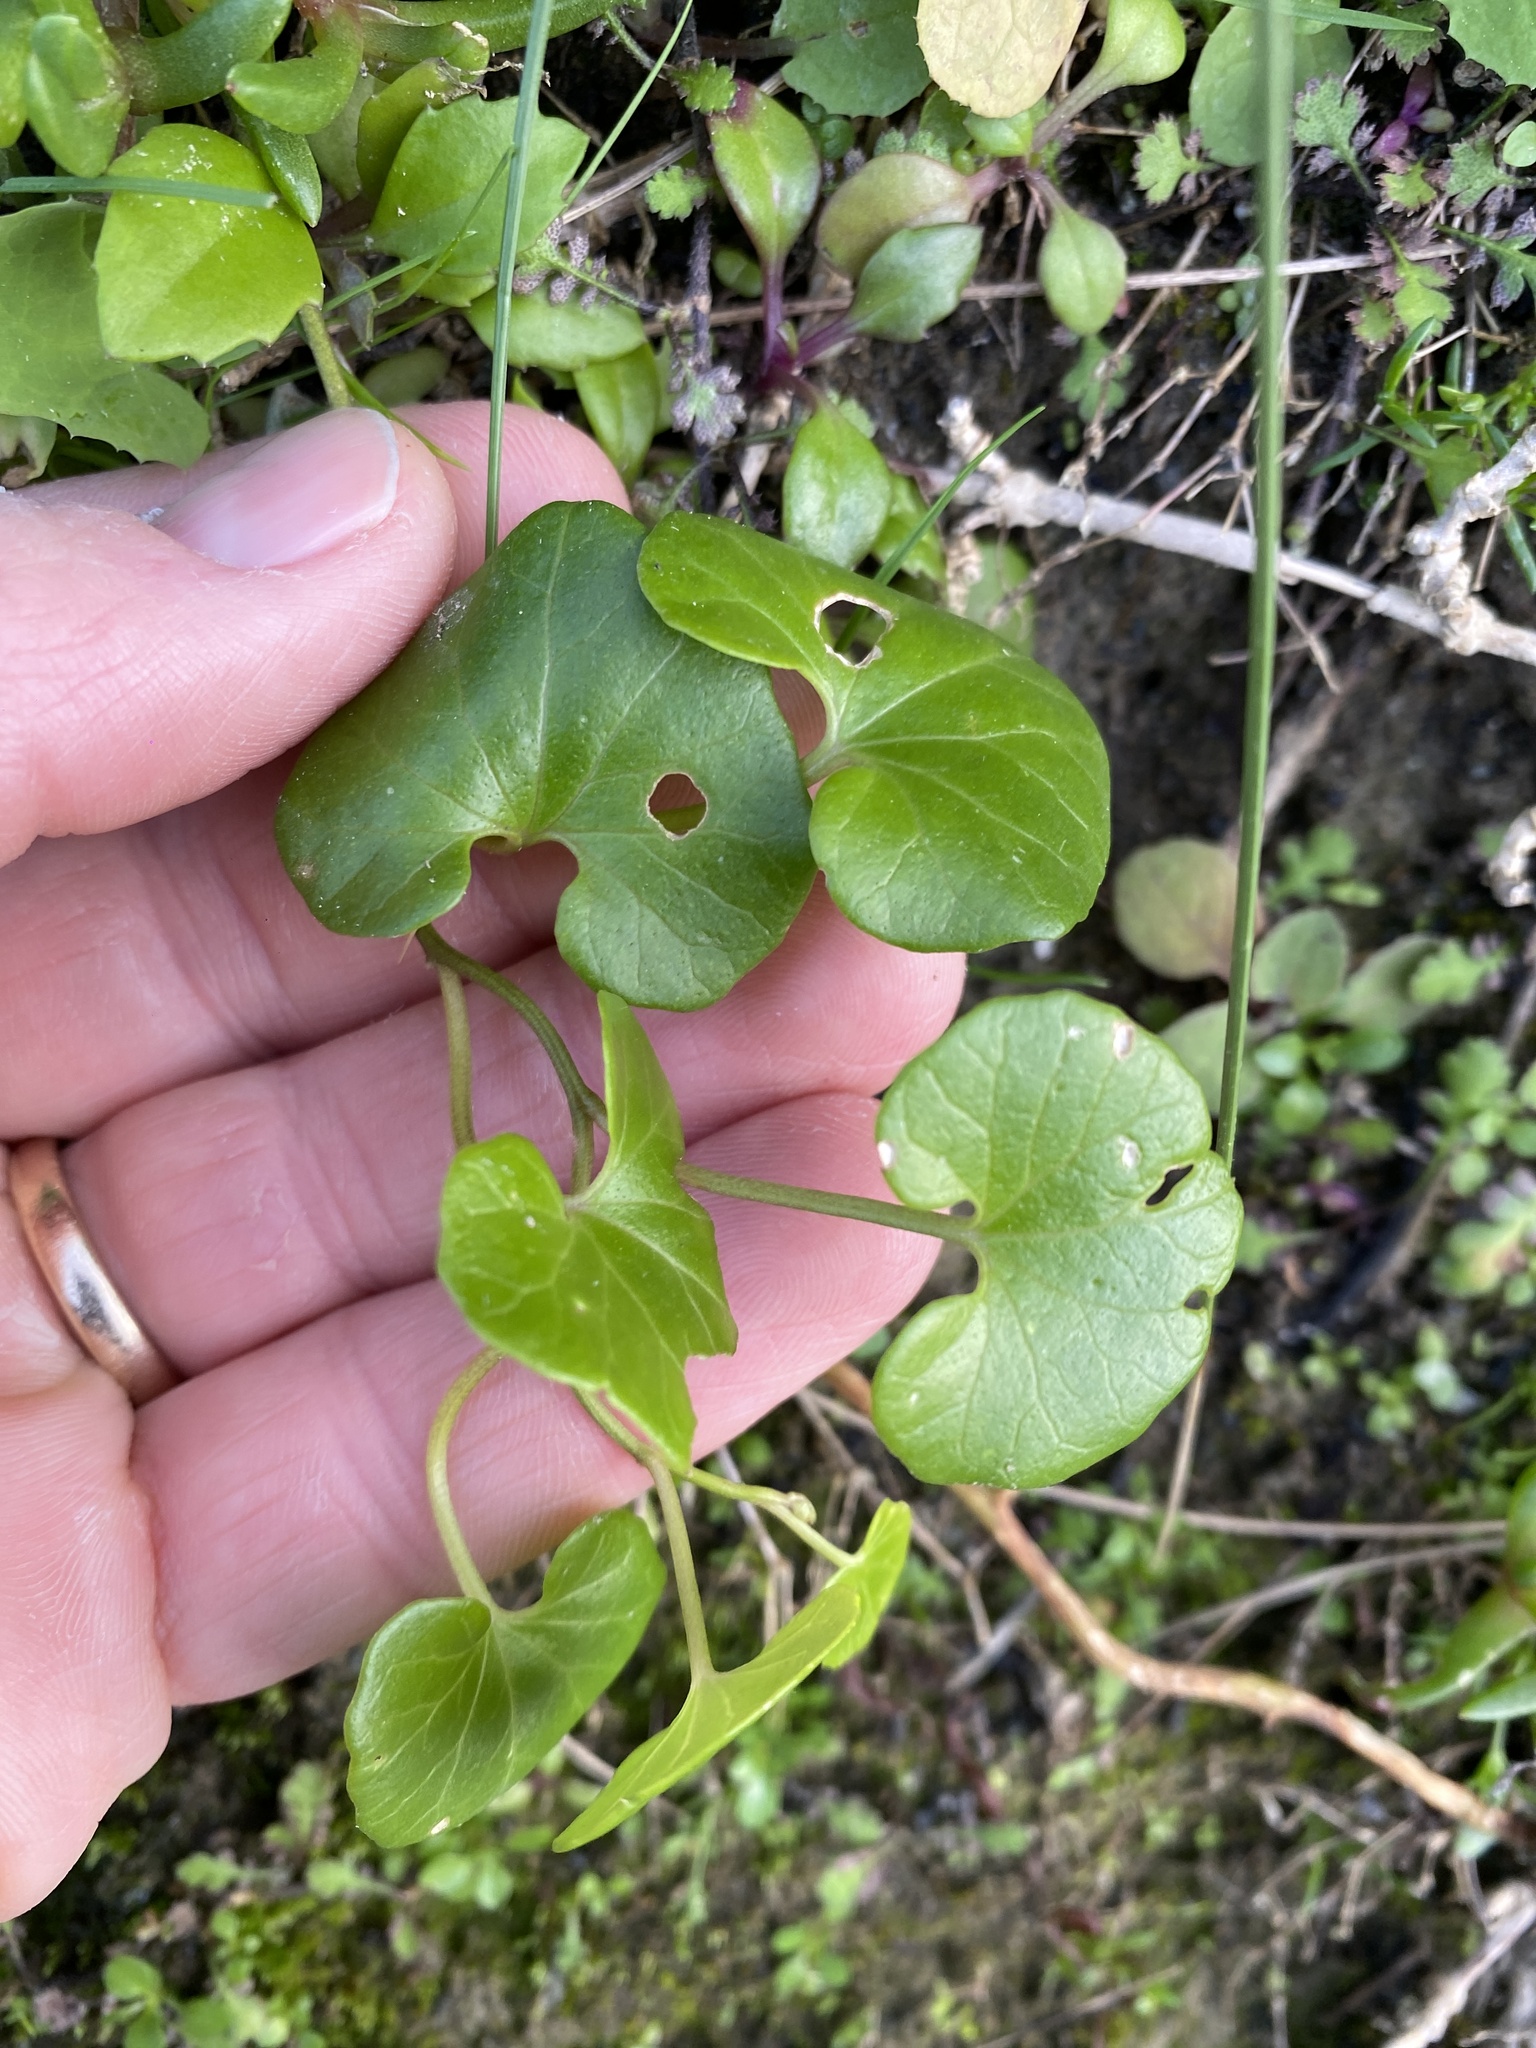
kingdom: Plantae
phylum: Tracheophyta
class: Magnoliopsida
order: Solanales
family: Convolvulaceae
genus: Calystegia
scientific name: Calystegia soldanella
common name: Sea bindweed
